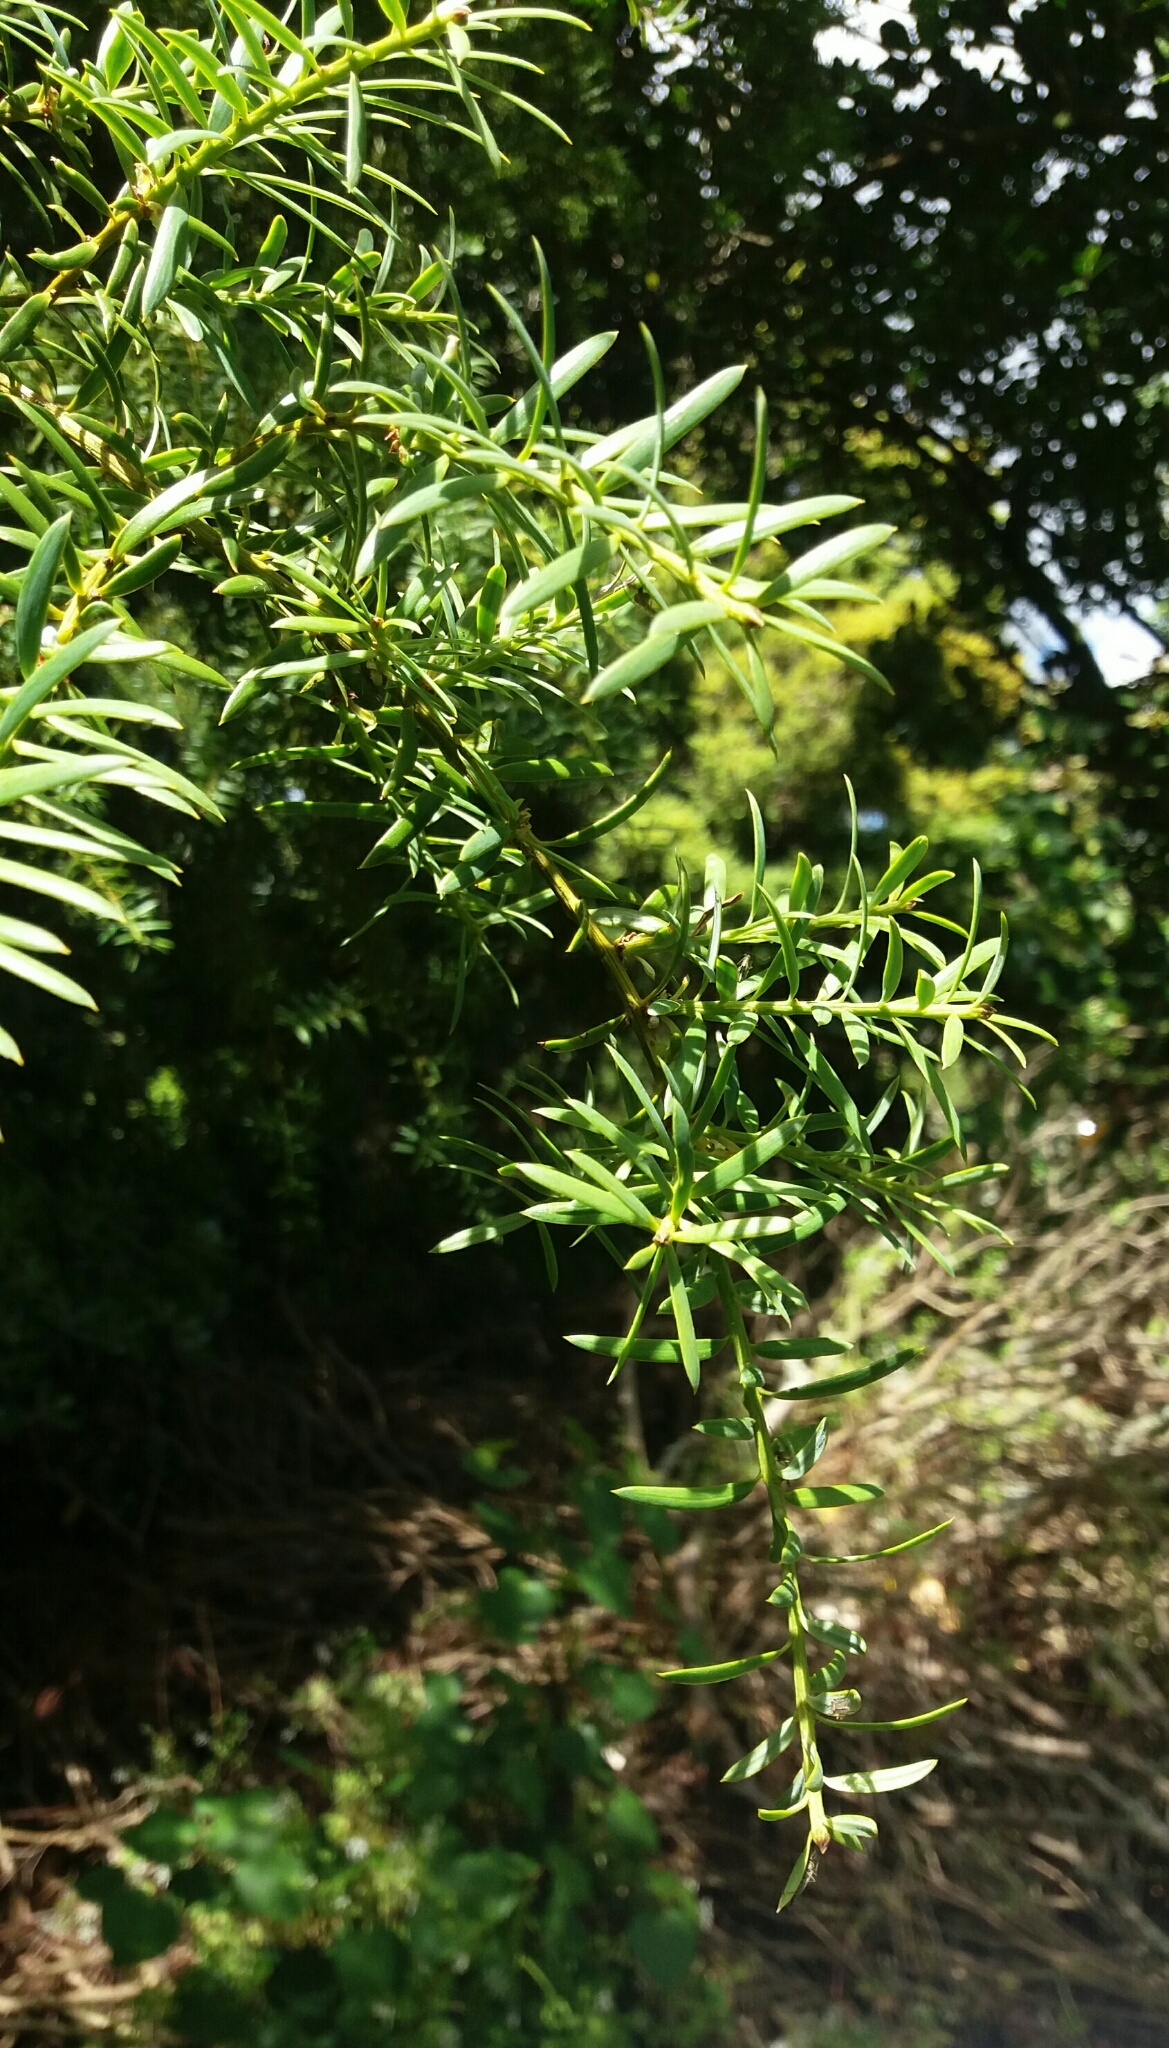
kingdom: Plantae
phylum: Tracheophyta
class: Pinopsida
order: Pinales
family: Podocarpaceae
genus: Podocarpus
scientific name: Podocarpus totara
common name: Totara
